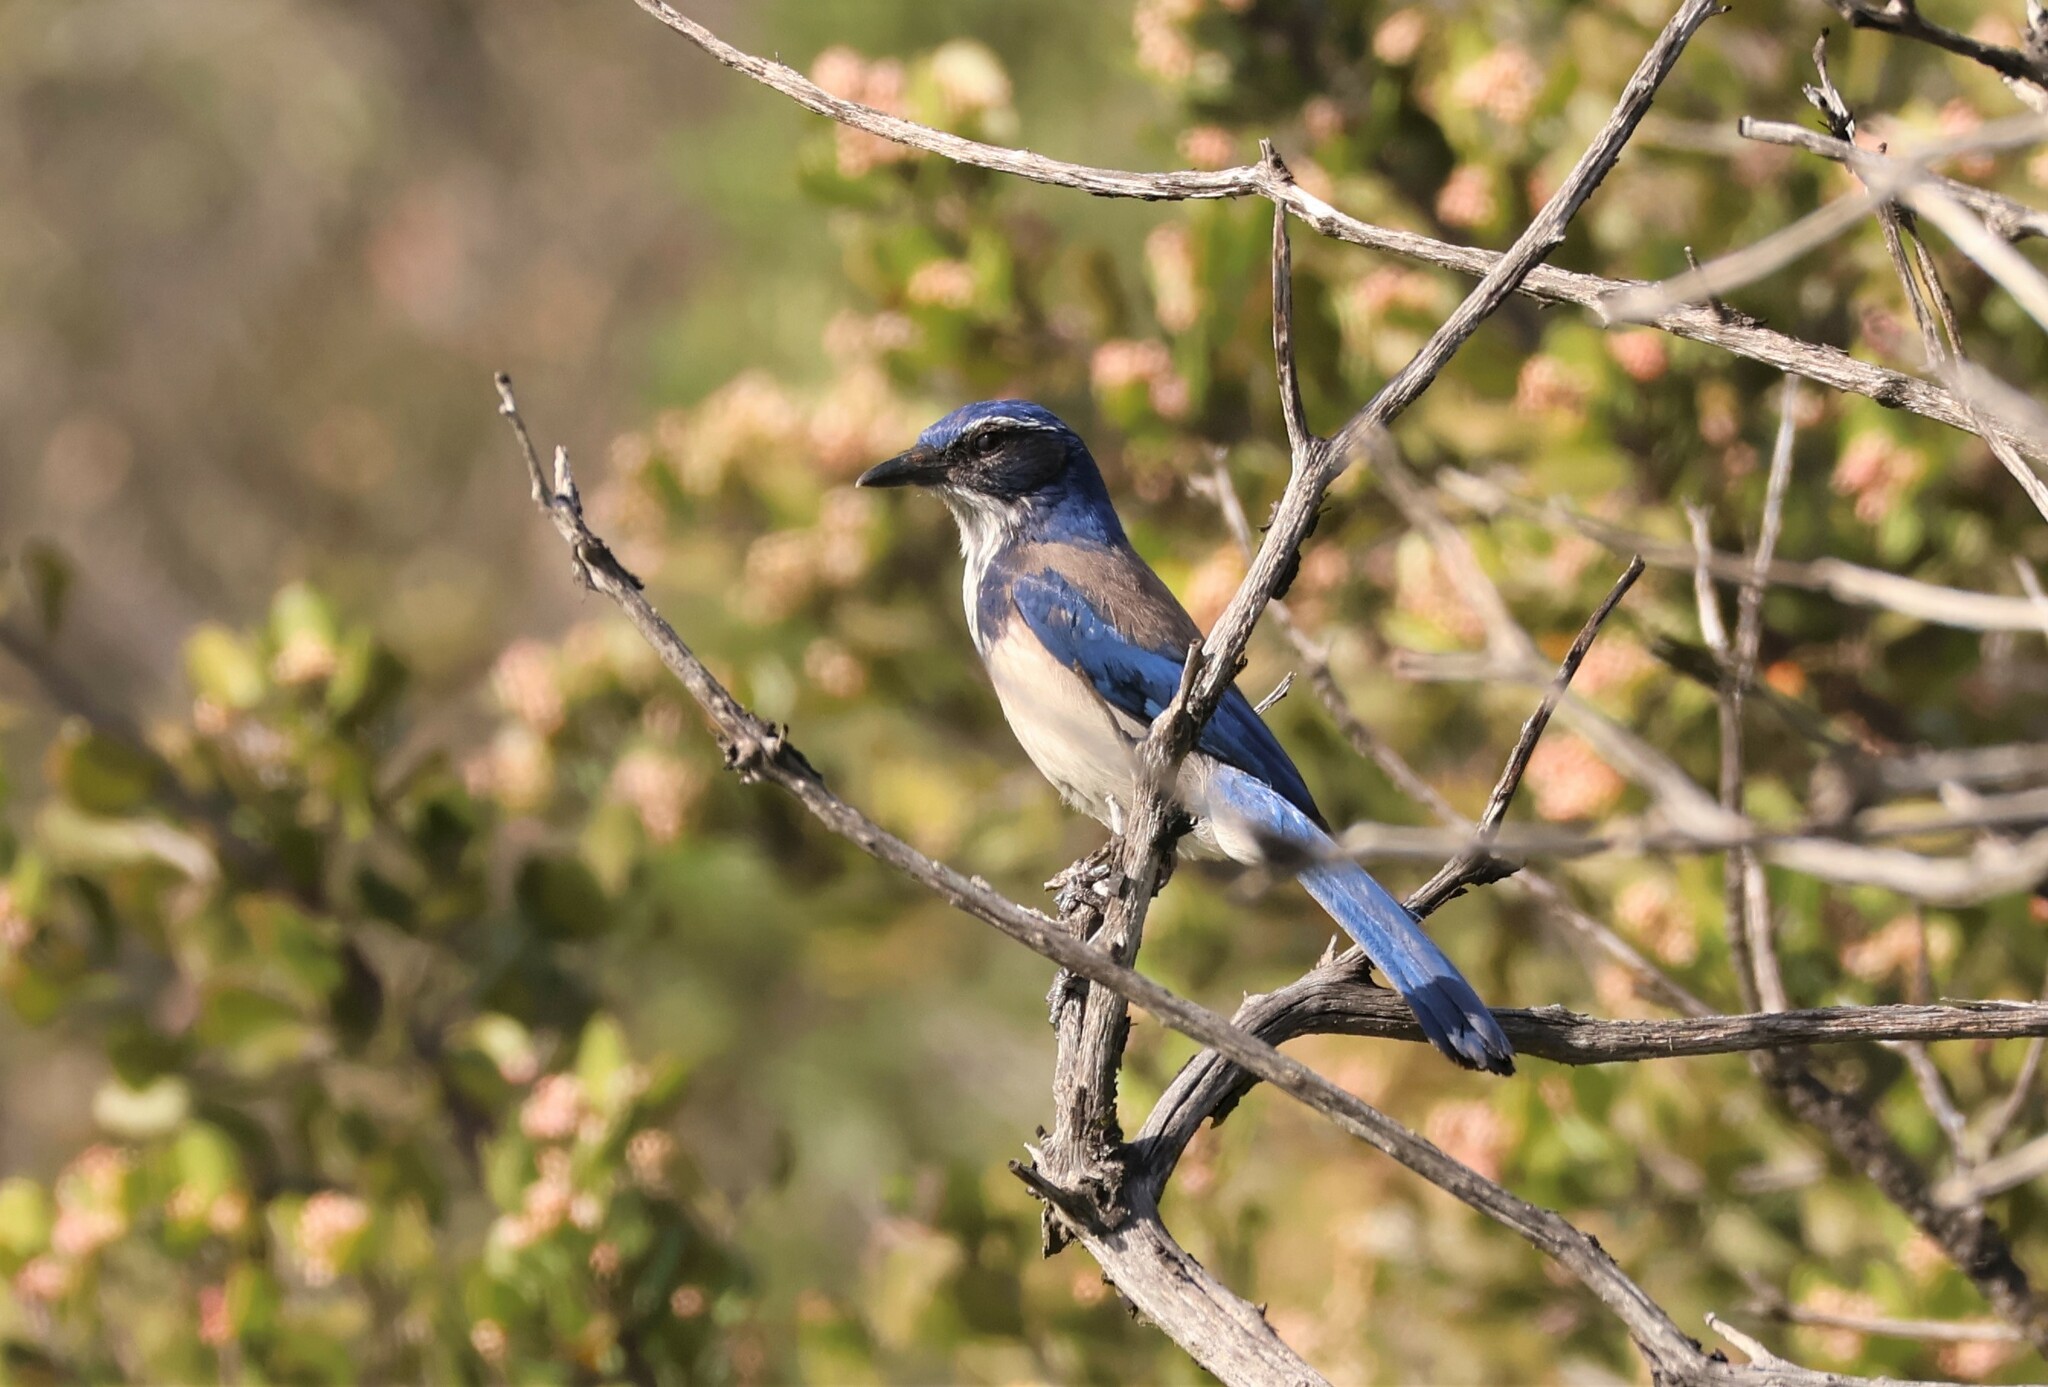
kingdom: Animalia
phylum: Chordata
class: Aves
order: Passeriformes
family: Corvidae
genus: Aphelocoma
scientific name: Aphelocoma californica
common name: California scrub-jay
